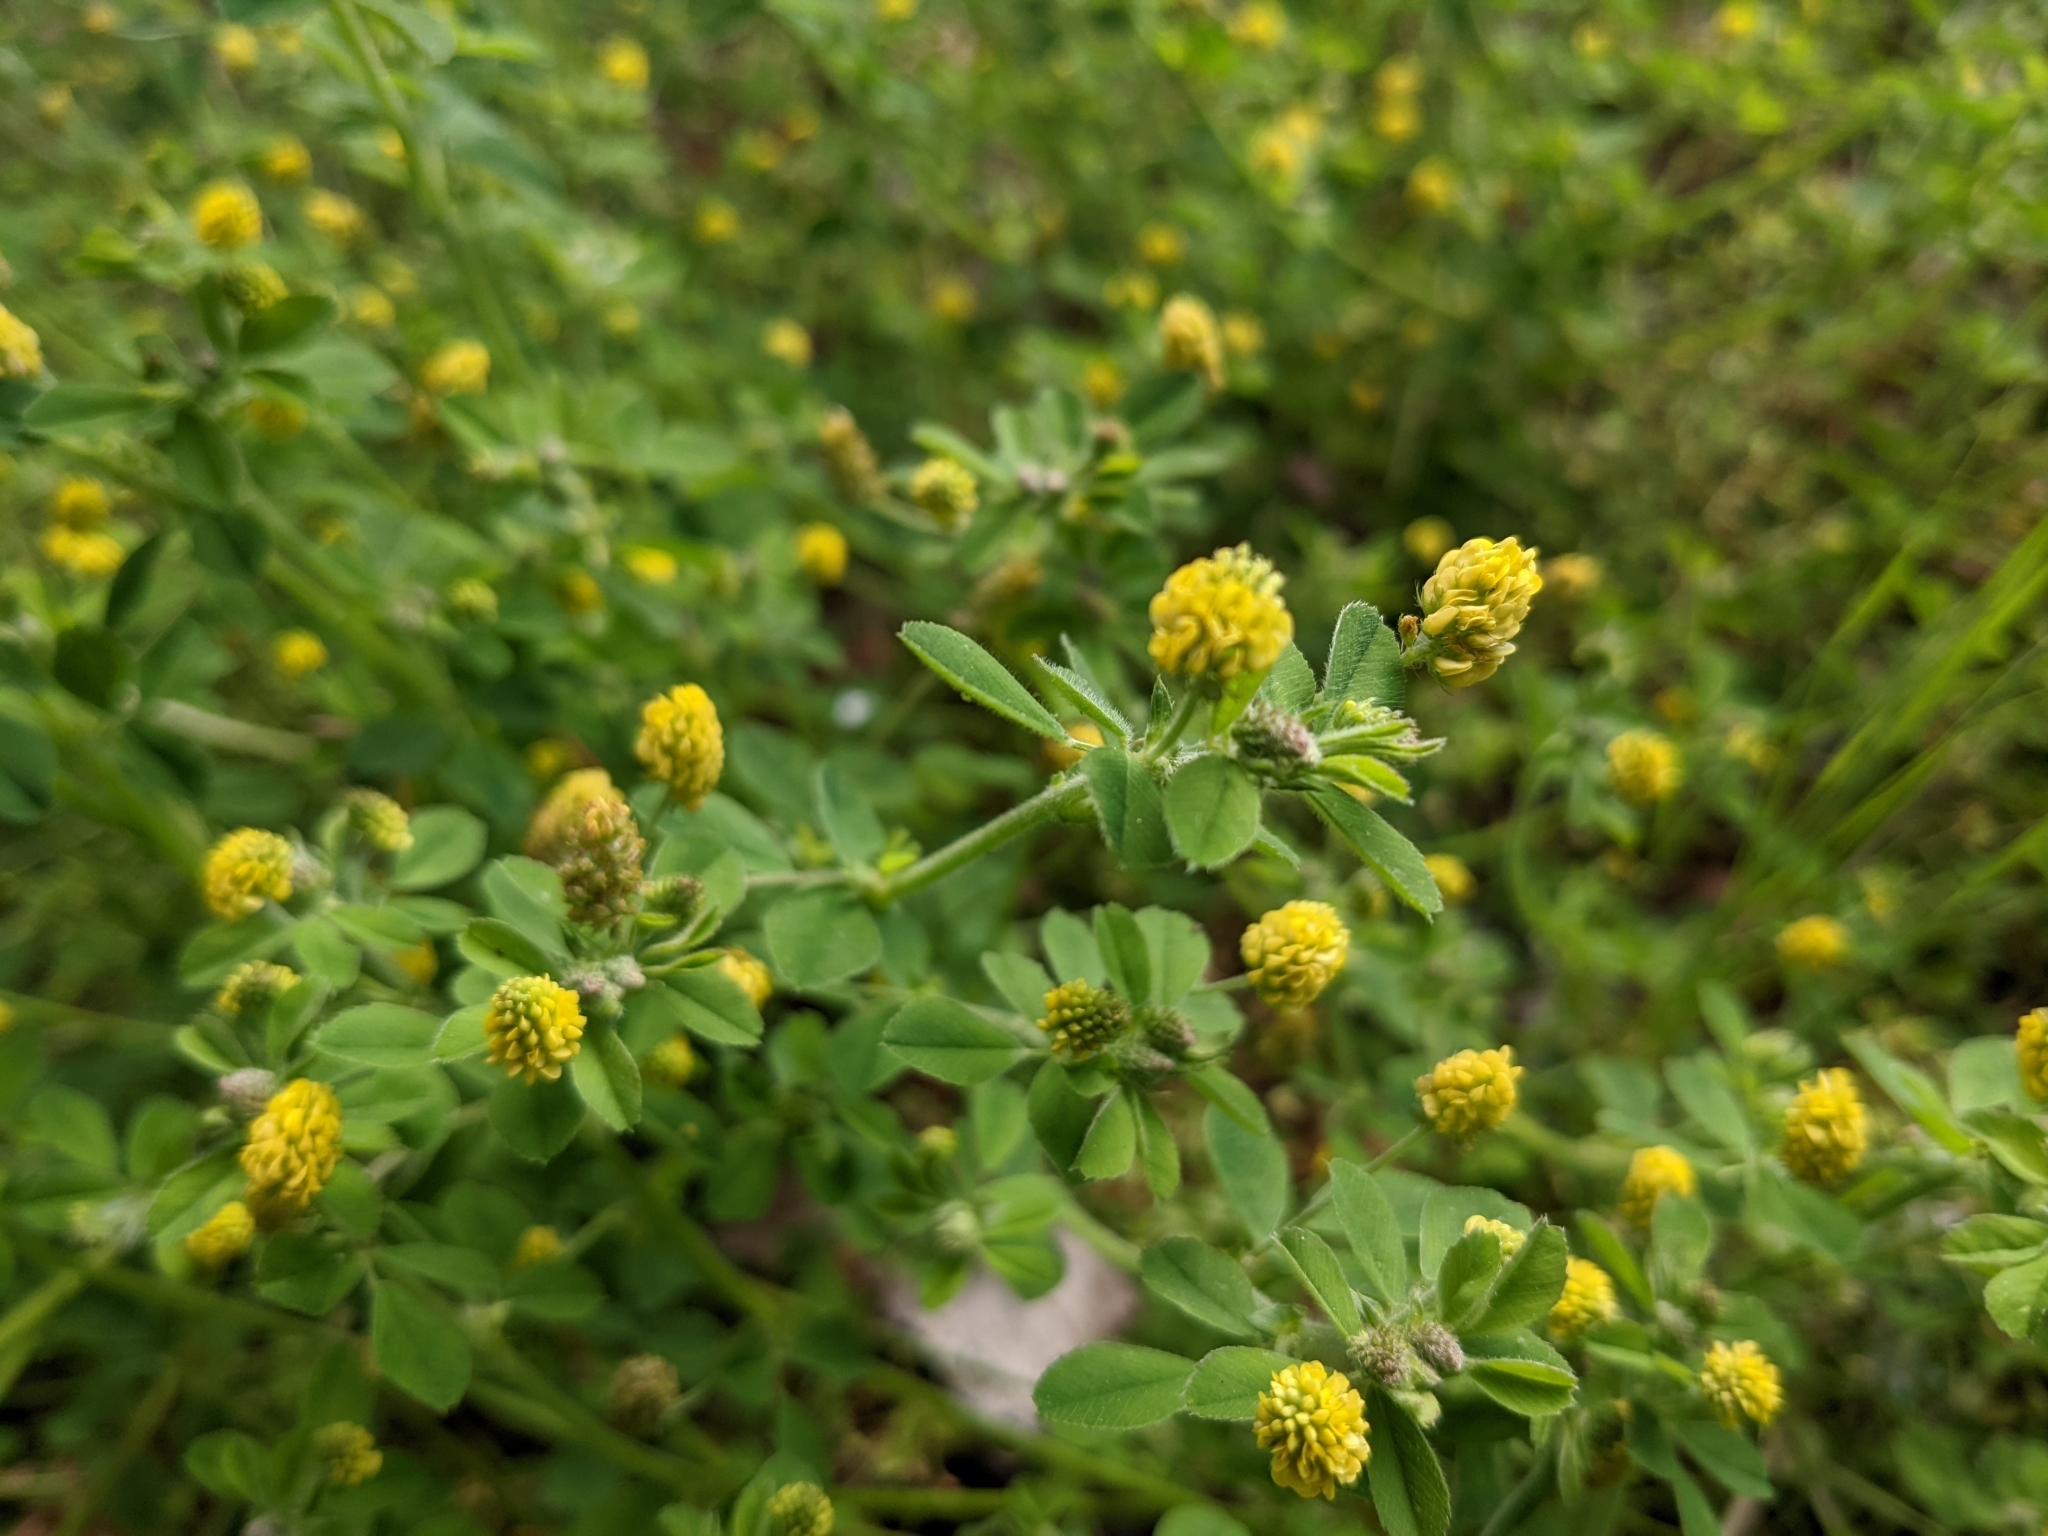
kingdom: Plantae
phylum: Tracheophyta
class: Magnoliopsida
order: Fabales
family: Fabaceae
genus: Medicago
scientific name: Medicago lupulina
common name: Black medick
